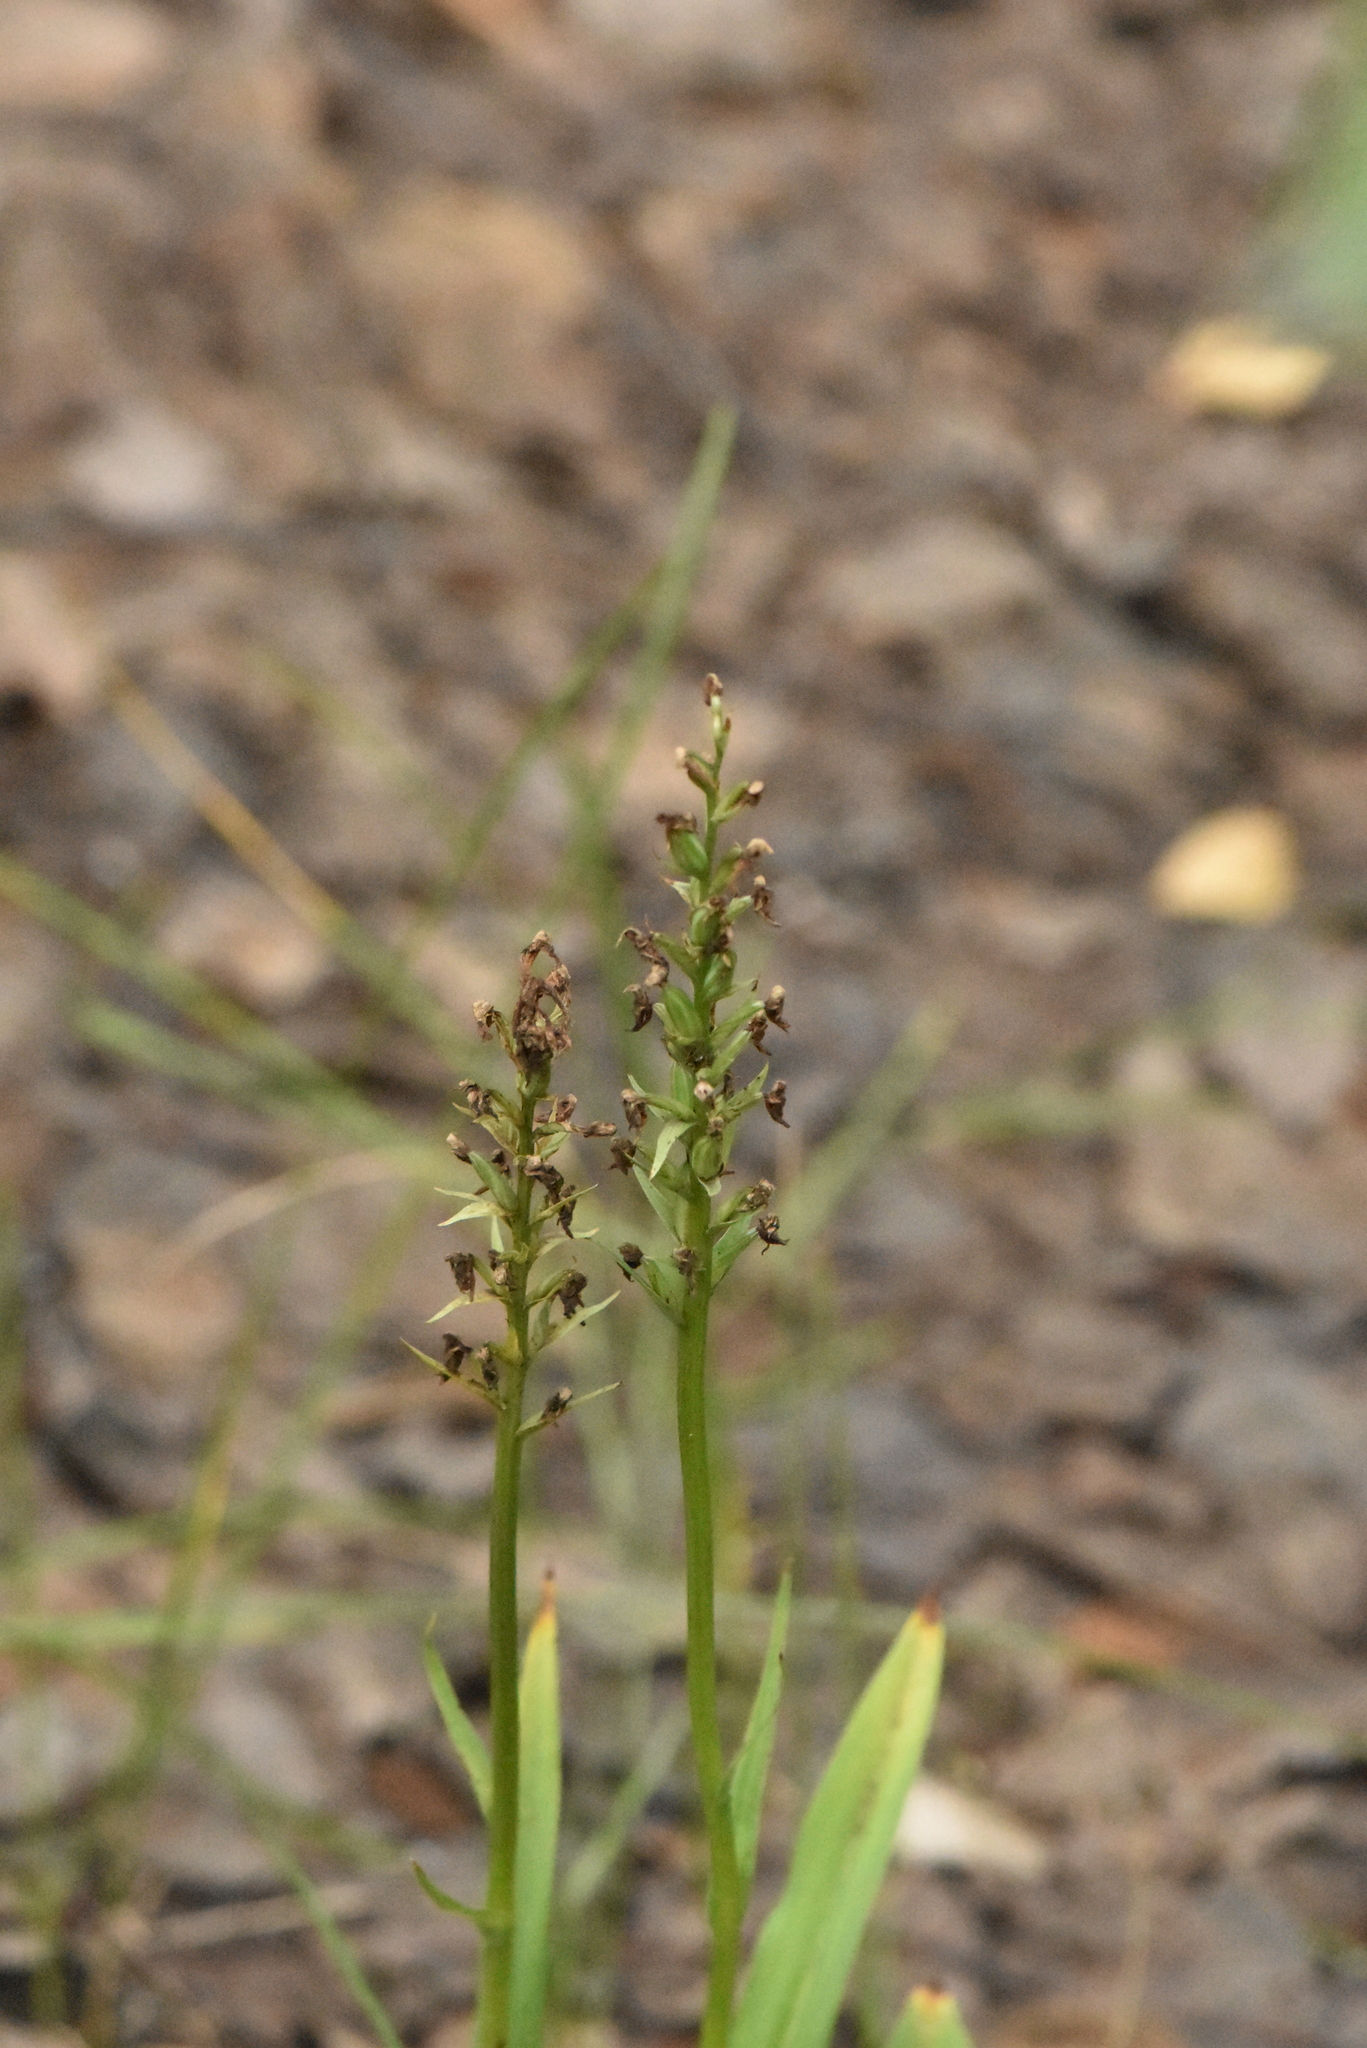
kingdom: Plantae
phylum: Tracheophyta
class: Liliopsida
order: Asparagales
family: Orchidaceae
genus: Dactylorhiza
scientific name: Dactylorhiza sibirica
